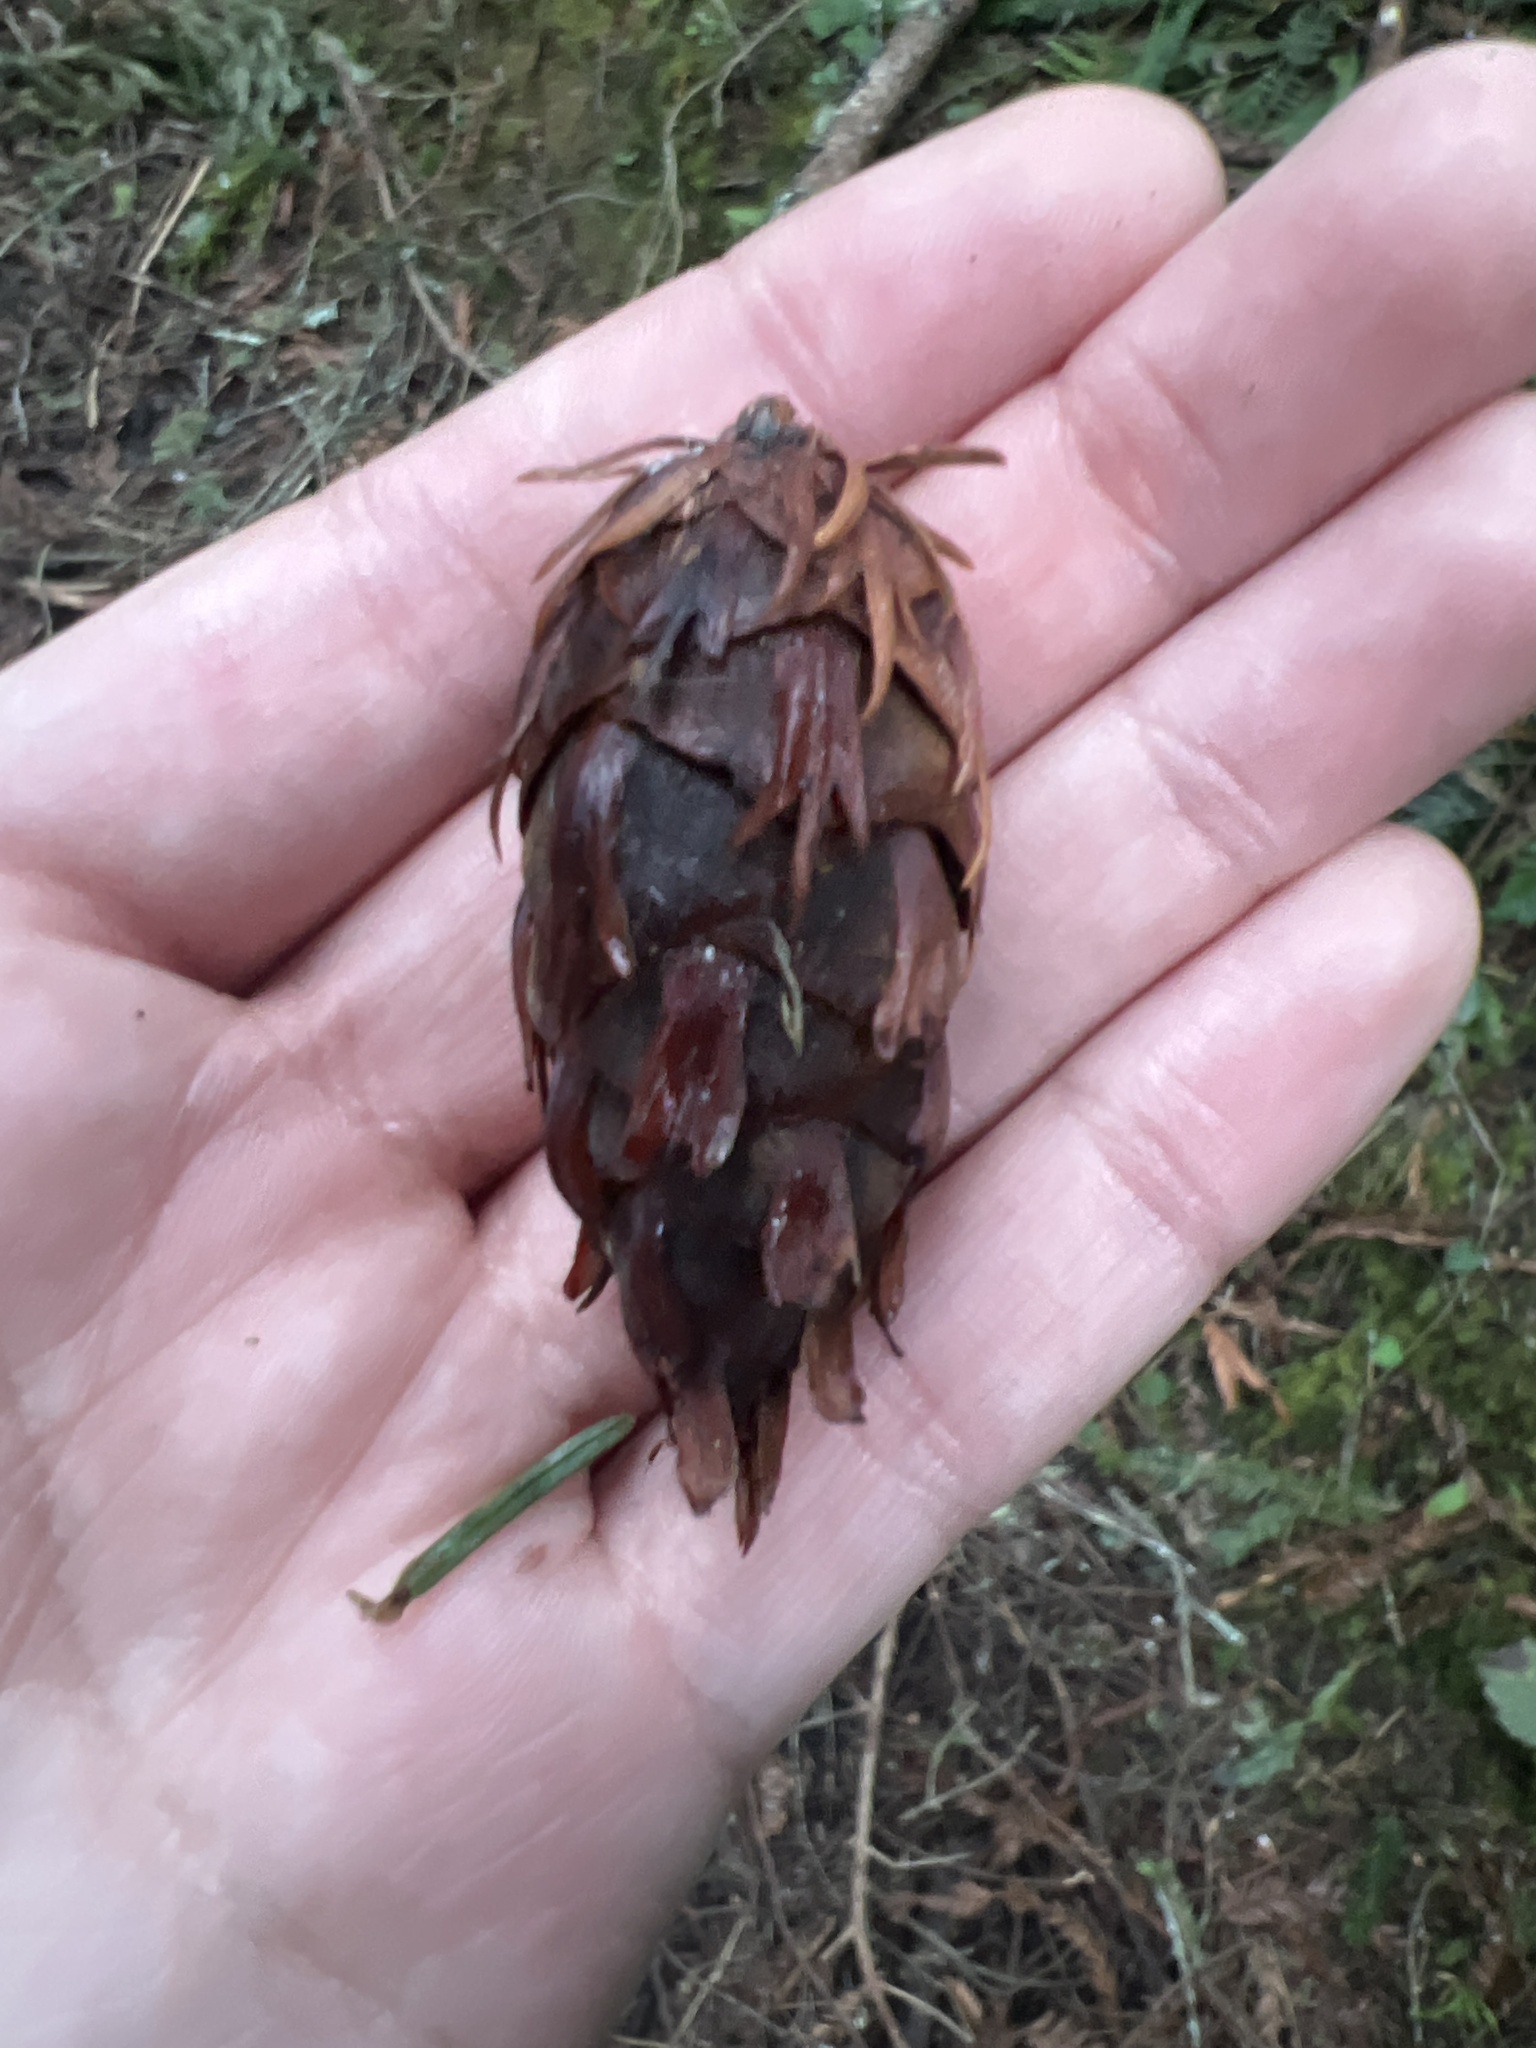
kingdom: Plantae
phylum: Tracheophyta
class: Pinopsida
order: Pinales
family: Pinaceae
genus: Pseudotsuga
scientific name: Pseudotsuga menziesii
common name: Douglas fir
